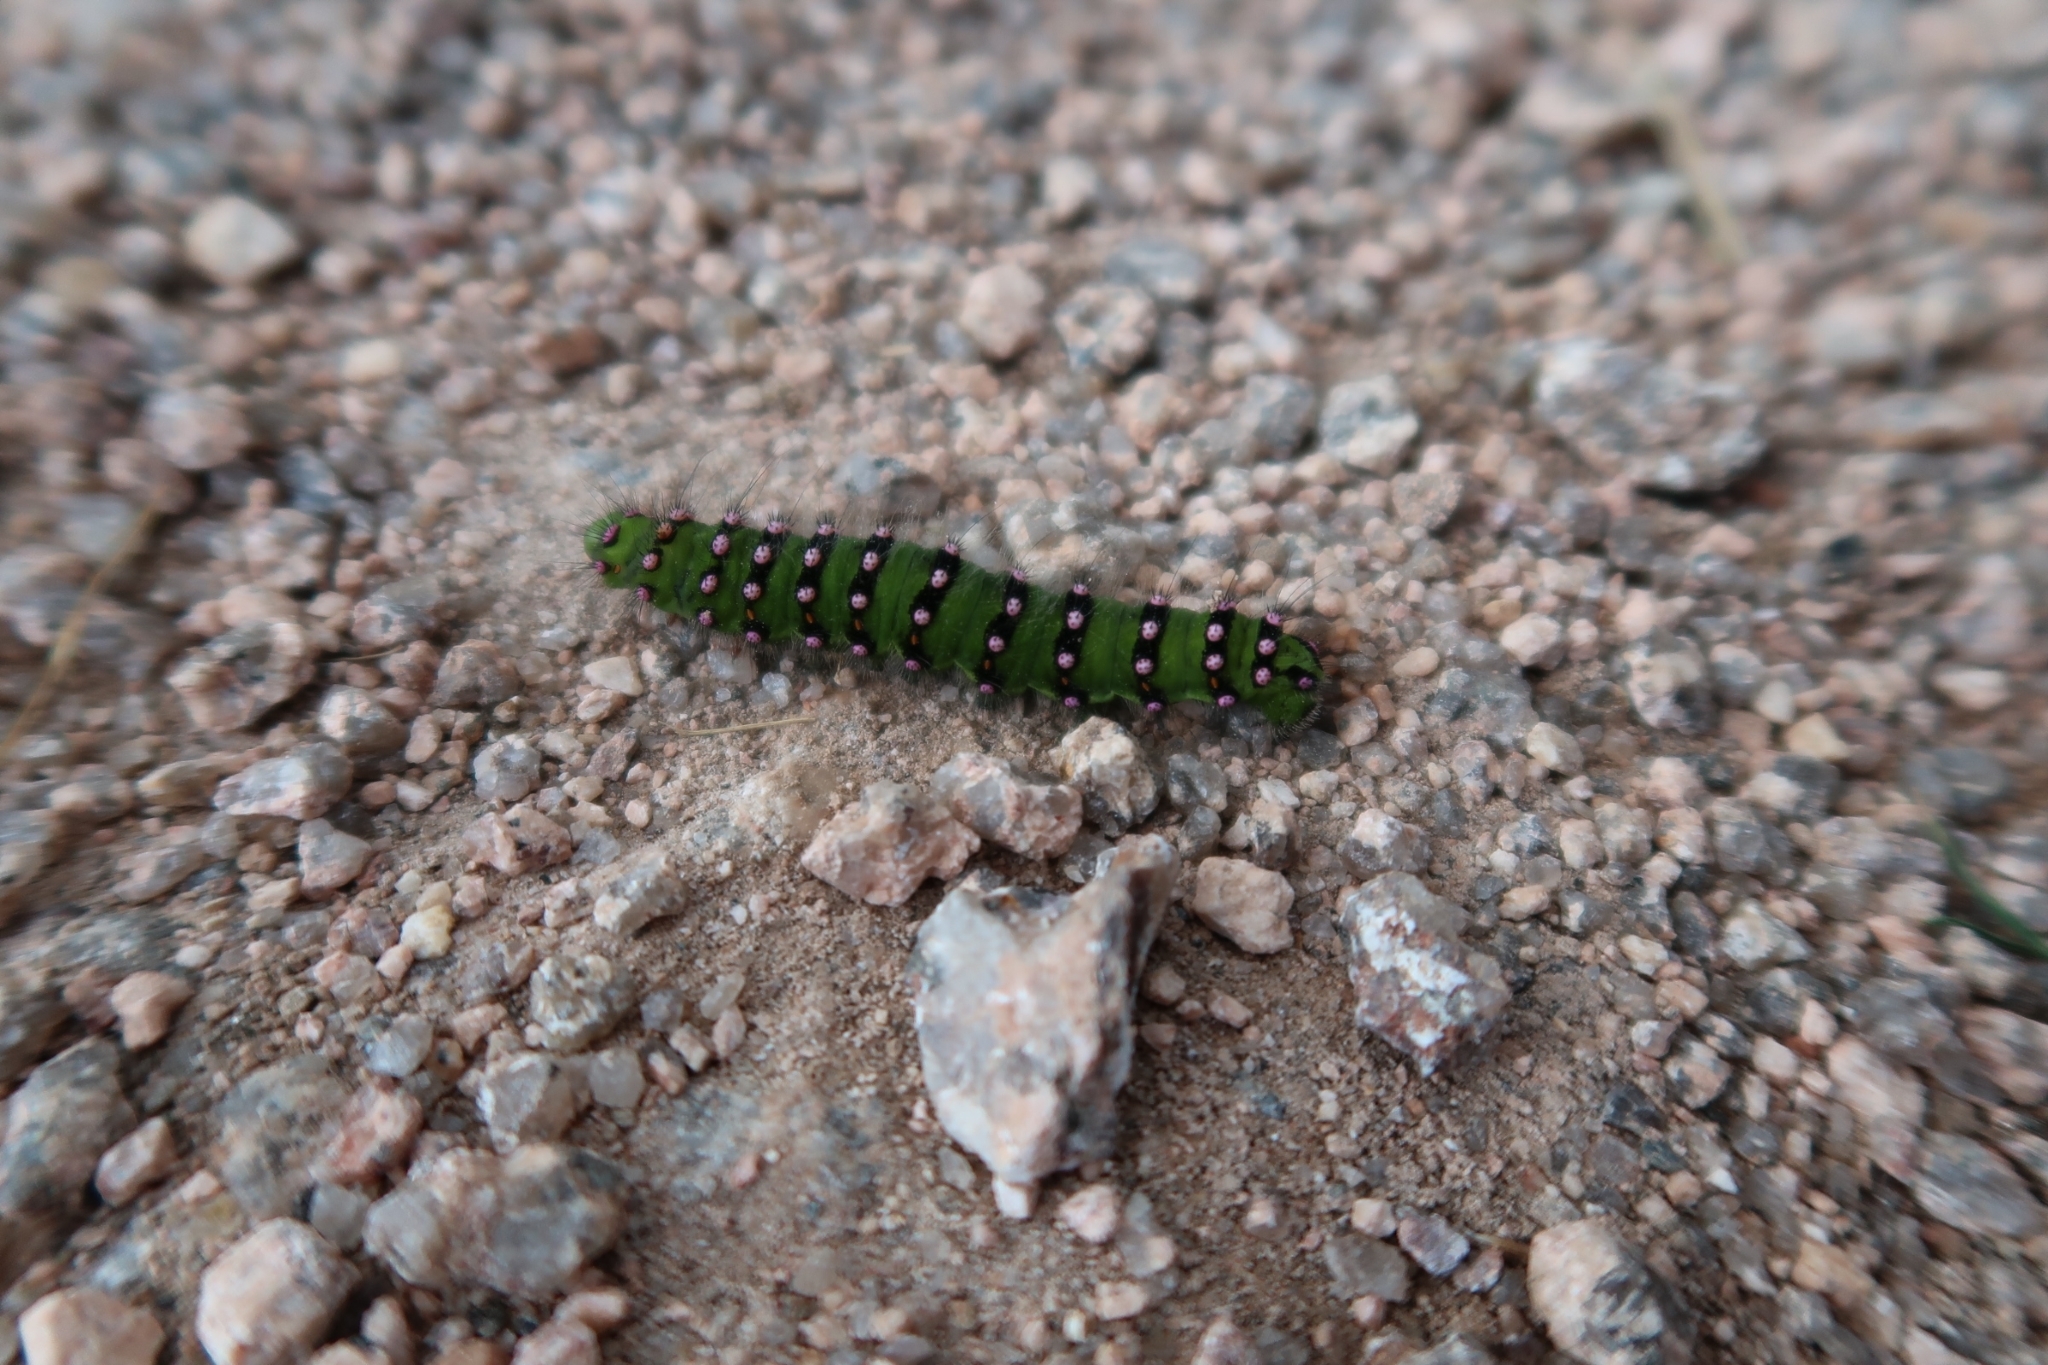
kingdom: Animalia
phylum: Arthropoda
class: Insecta
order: Lepidoptera
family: Saturniidae
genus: Saturnia
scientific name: Saturnia pavonia
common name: Emperor moth
